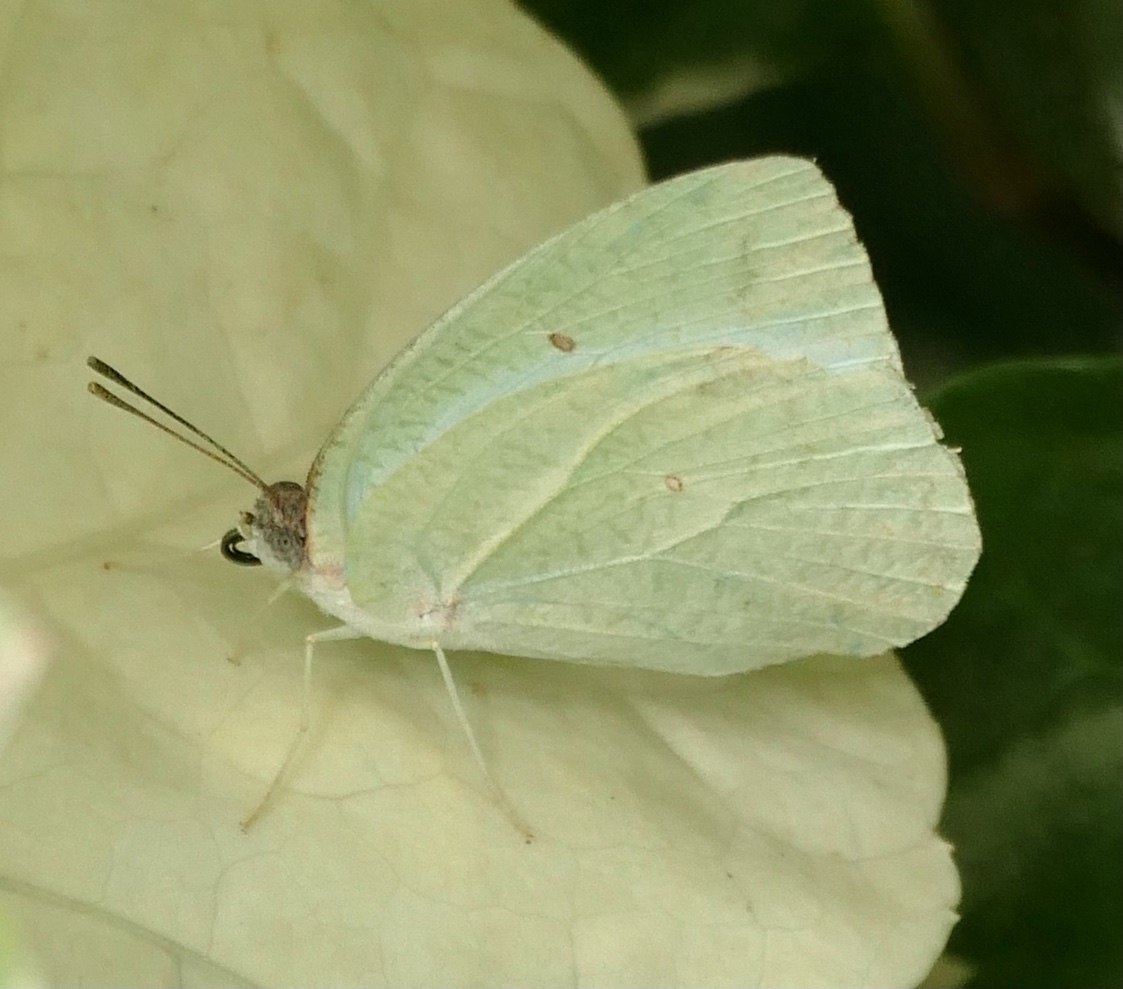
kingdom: Animalia
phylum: Arthropoda
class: Insecta
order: Lepidoptera
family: Pieridae
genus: Catopsilia
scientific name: Catopsilia florella
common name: African migrant
